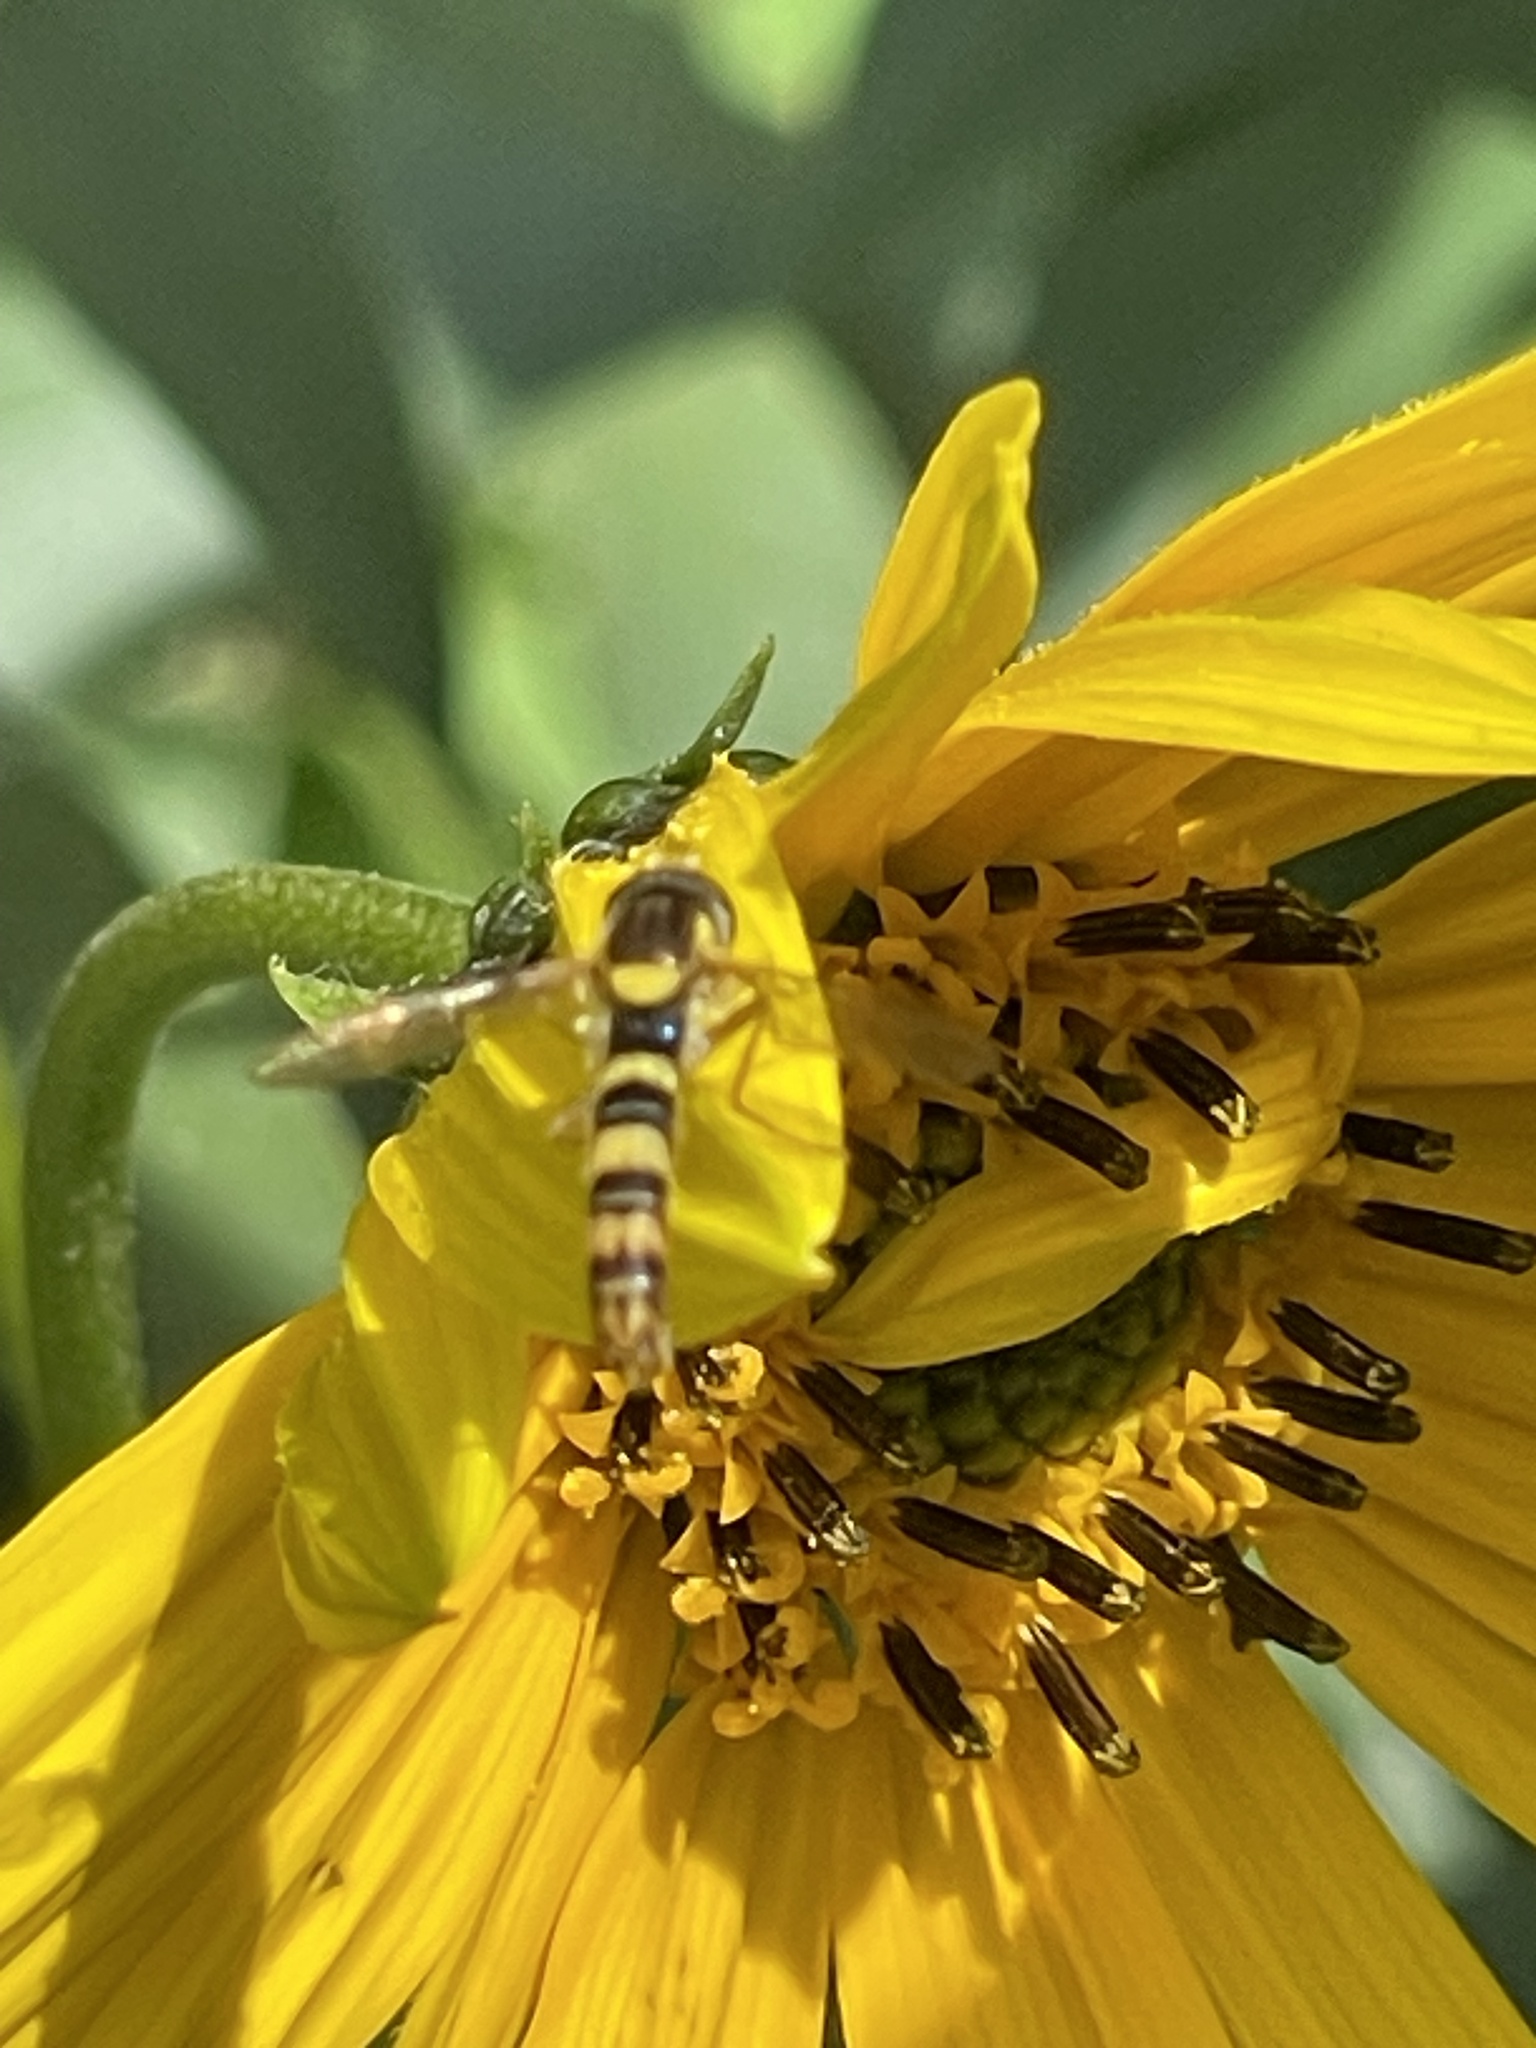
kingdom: Animalia
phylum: Arthropoda
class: Insecta
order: Diptera
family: Syrphidae
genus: Sphaerophoria
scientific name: Sphaerophoria scripta
